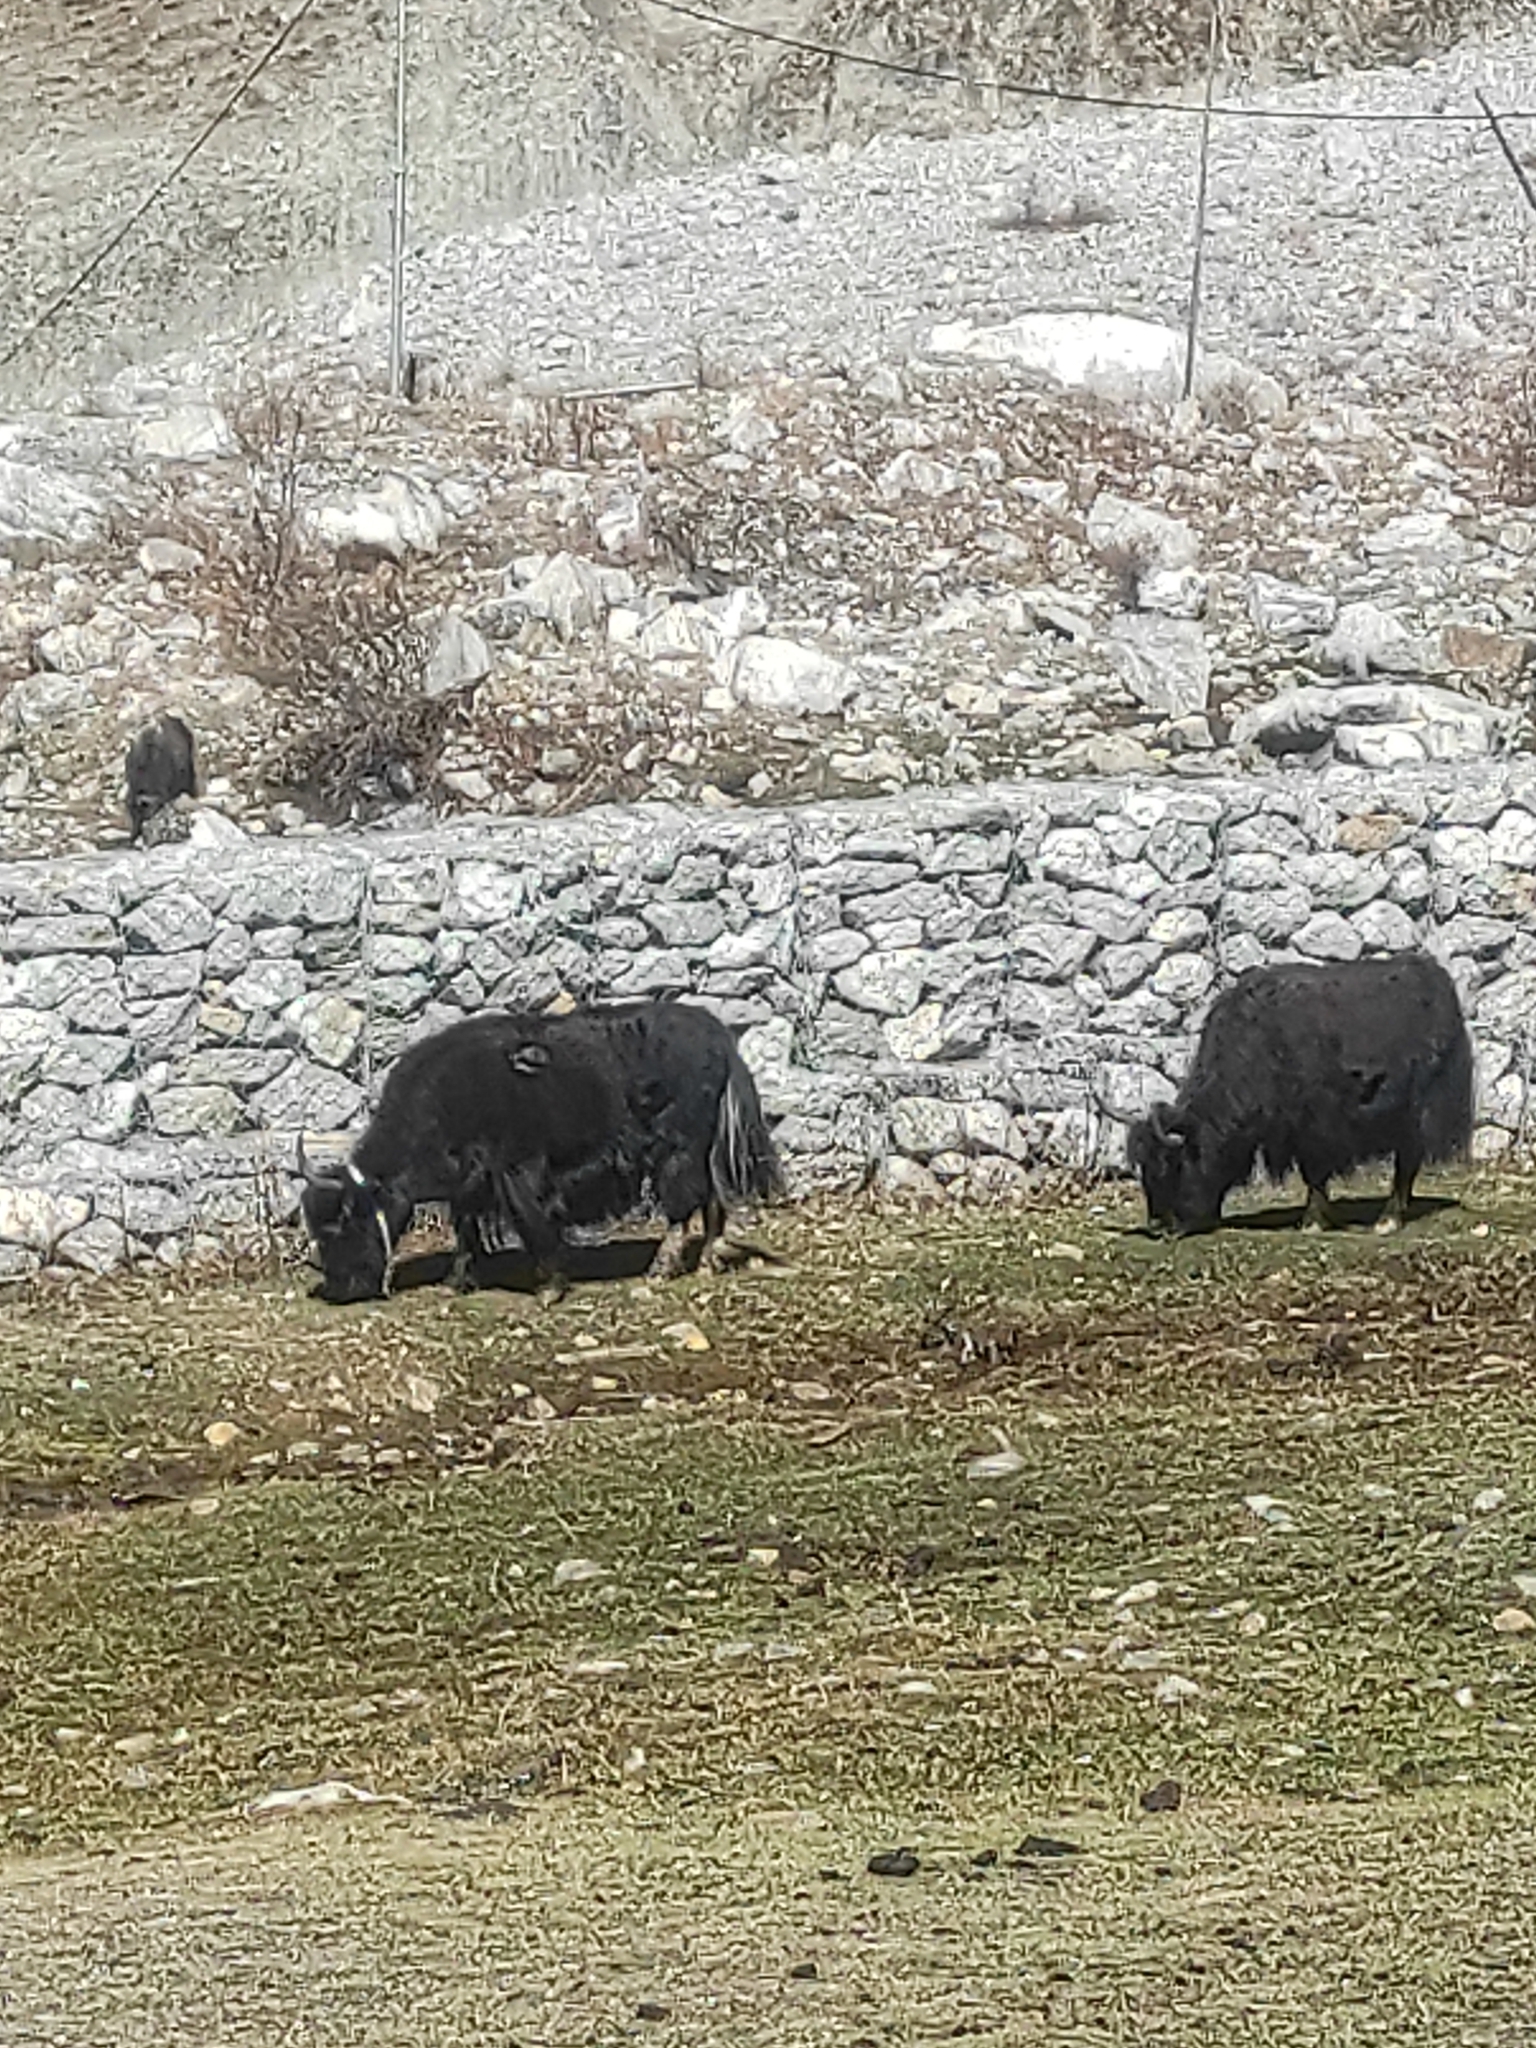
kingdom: Animalia
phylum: Chordata
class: Mammalia
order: Artiodactyla
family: Bovidae
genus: Bos
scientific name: Bos grunniens
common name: Yak
